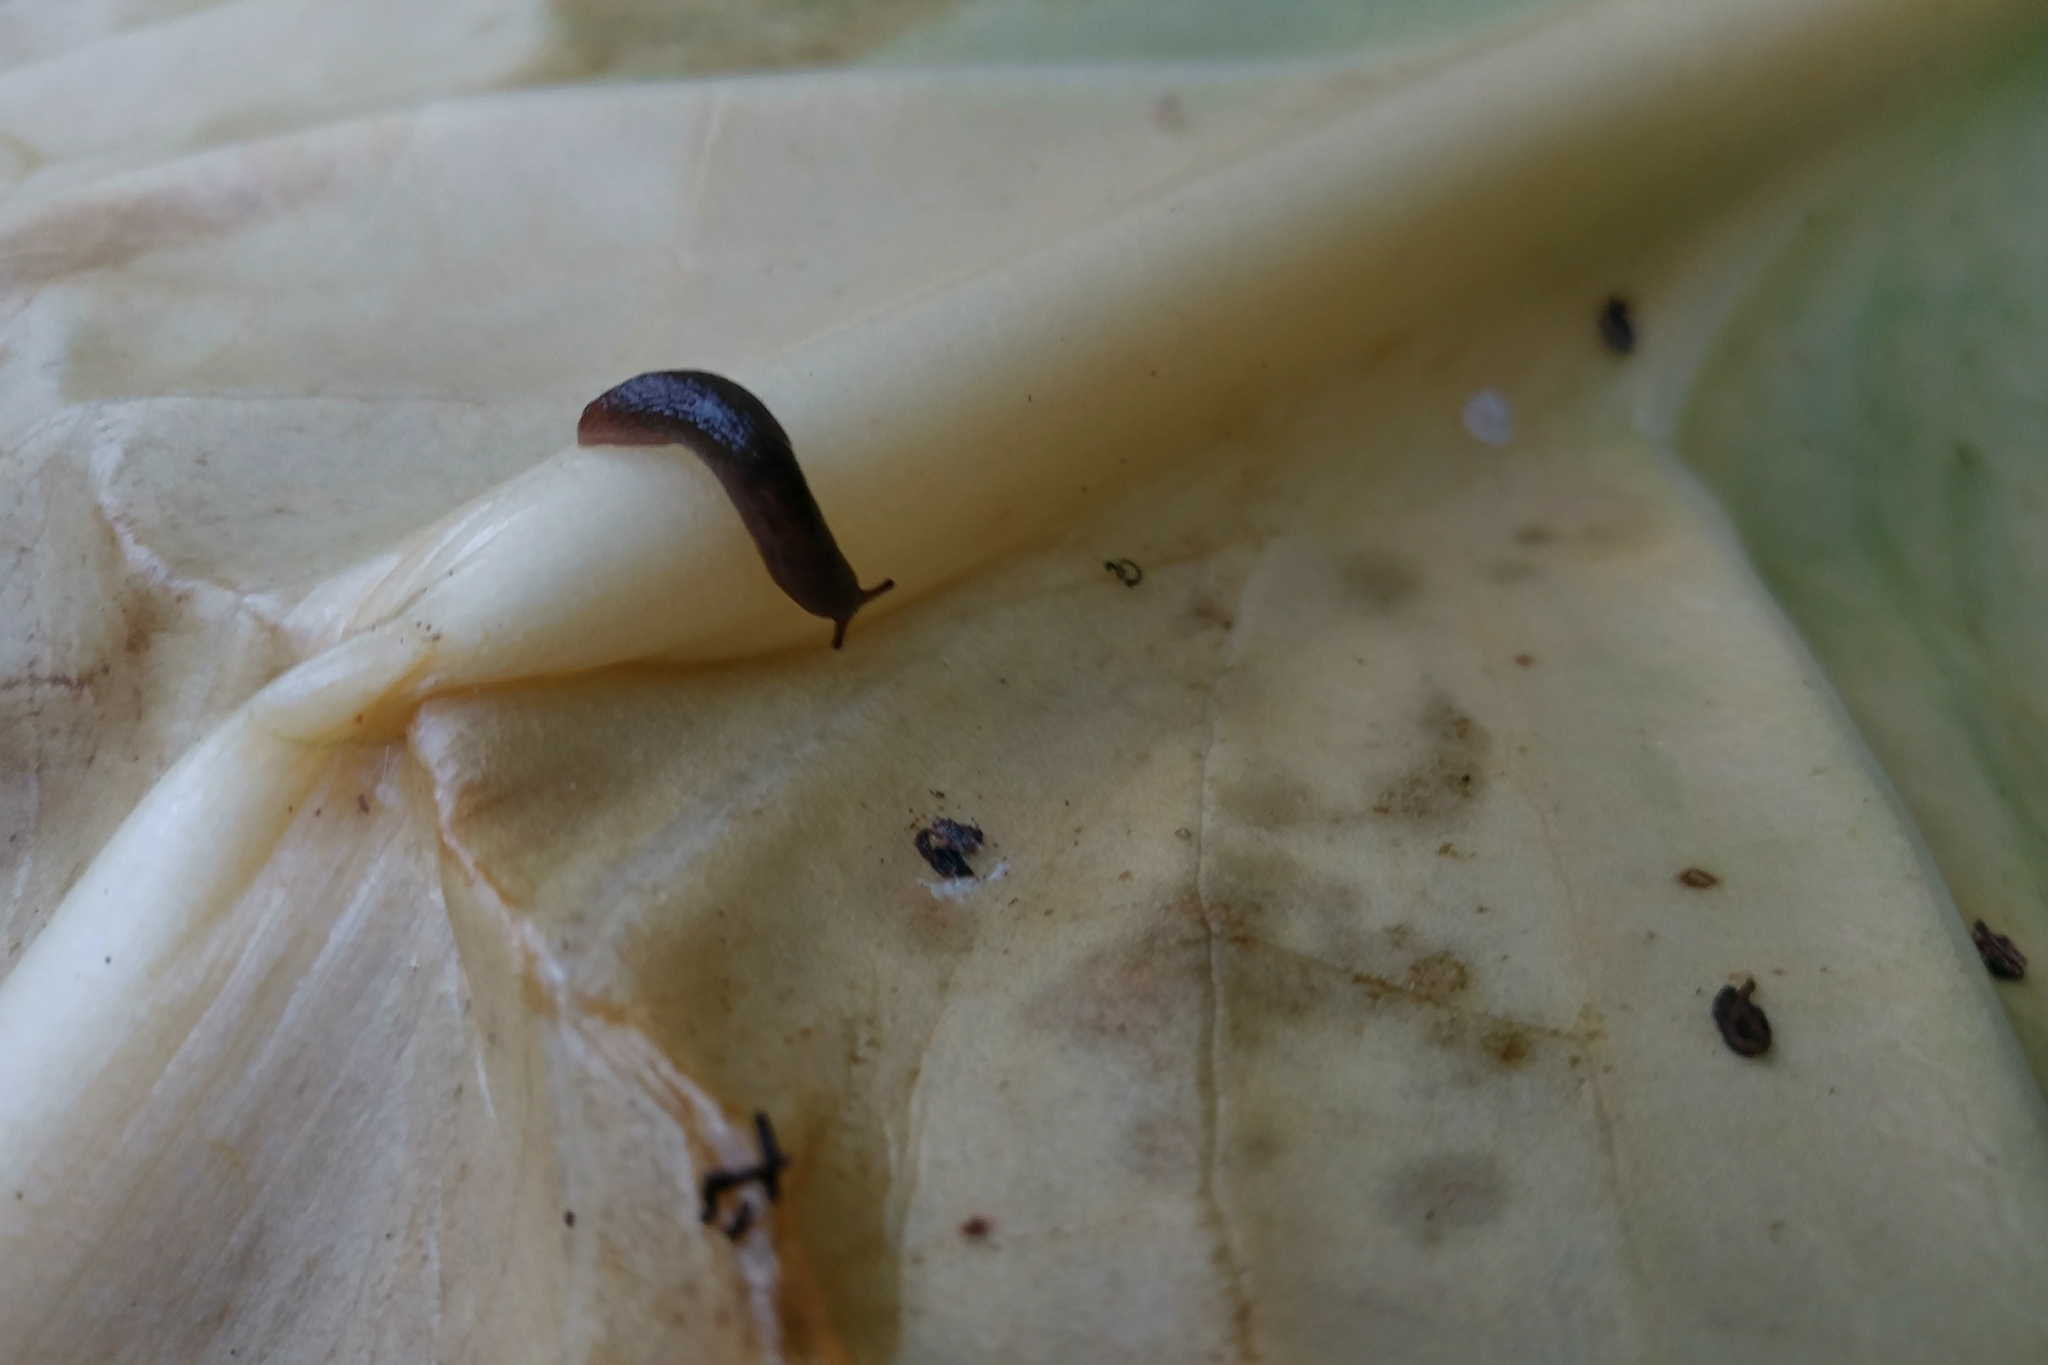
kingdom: Animalia
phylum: Mollusca
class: Gastropoda
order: Stylommatophora
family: Agriolimacidae
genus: Deroceras
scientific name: Deroceras laeve
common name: Marsh slug
